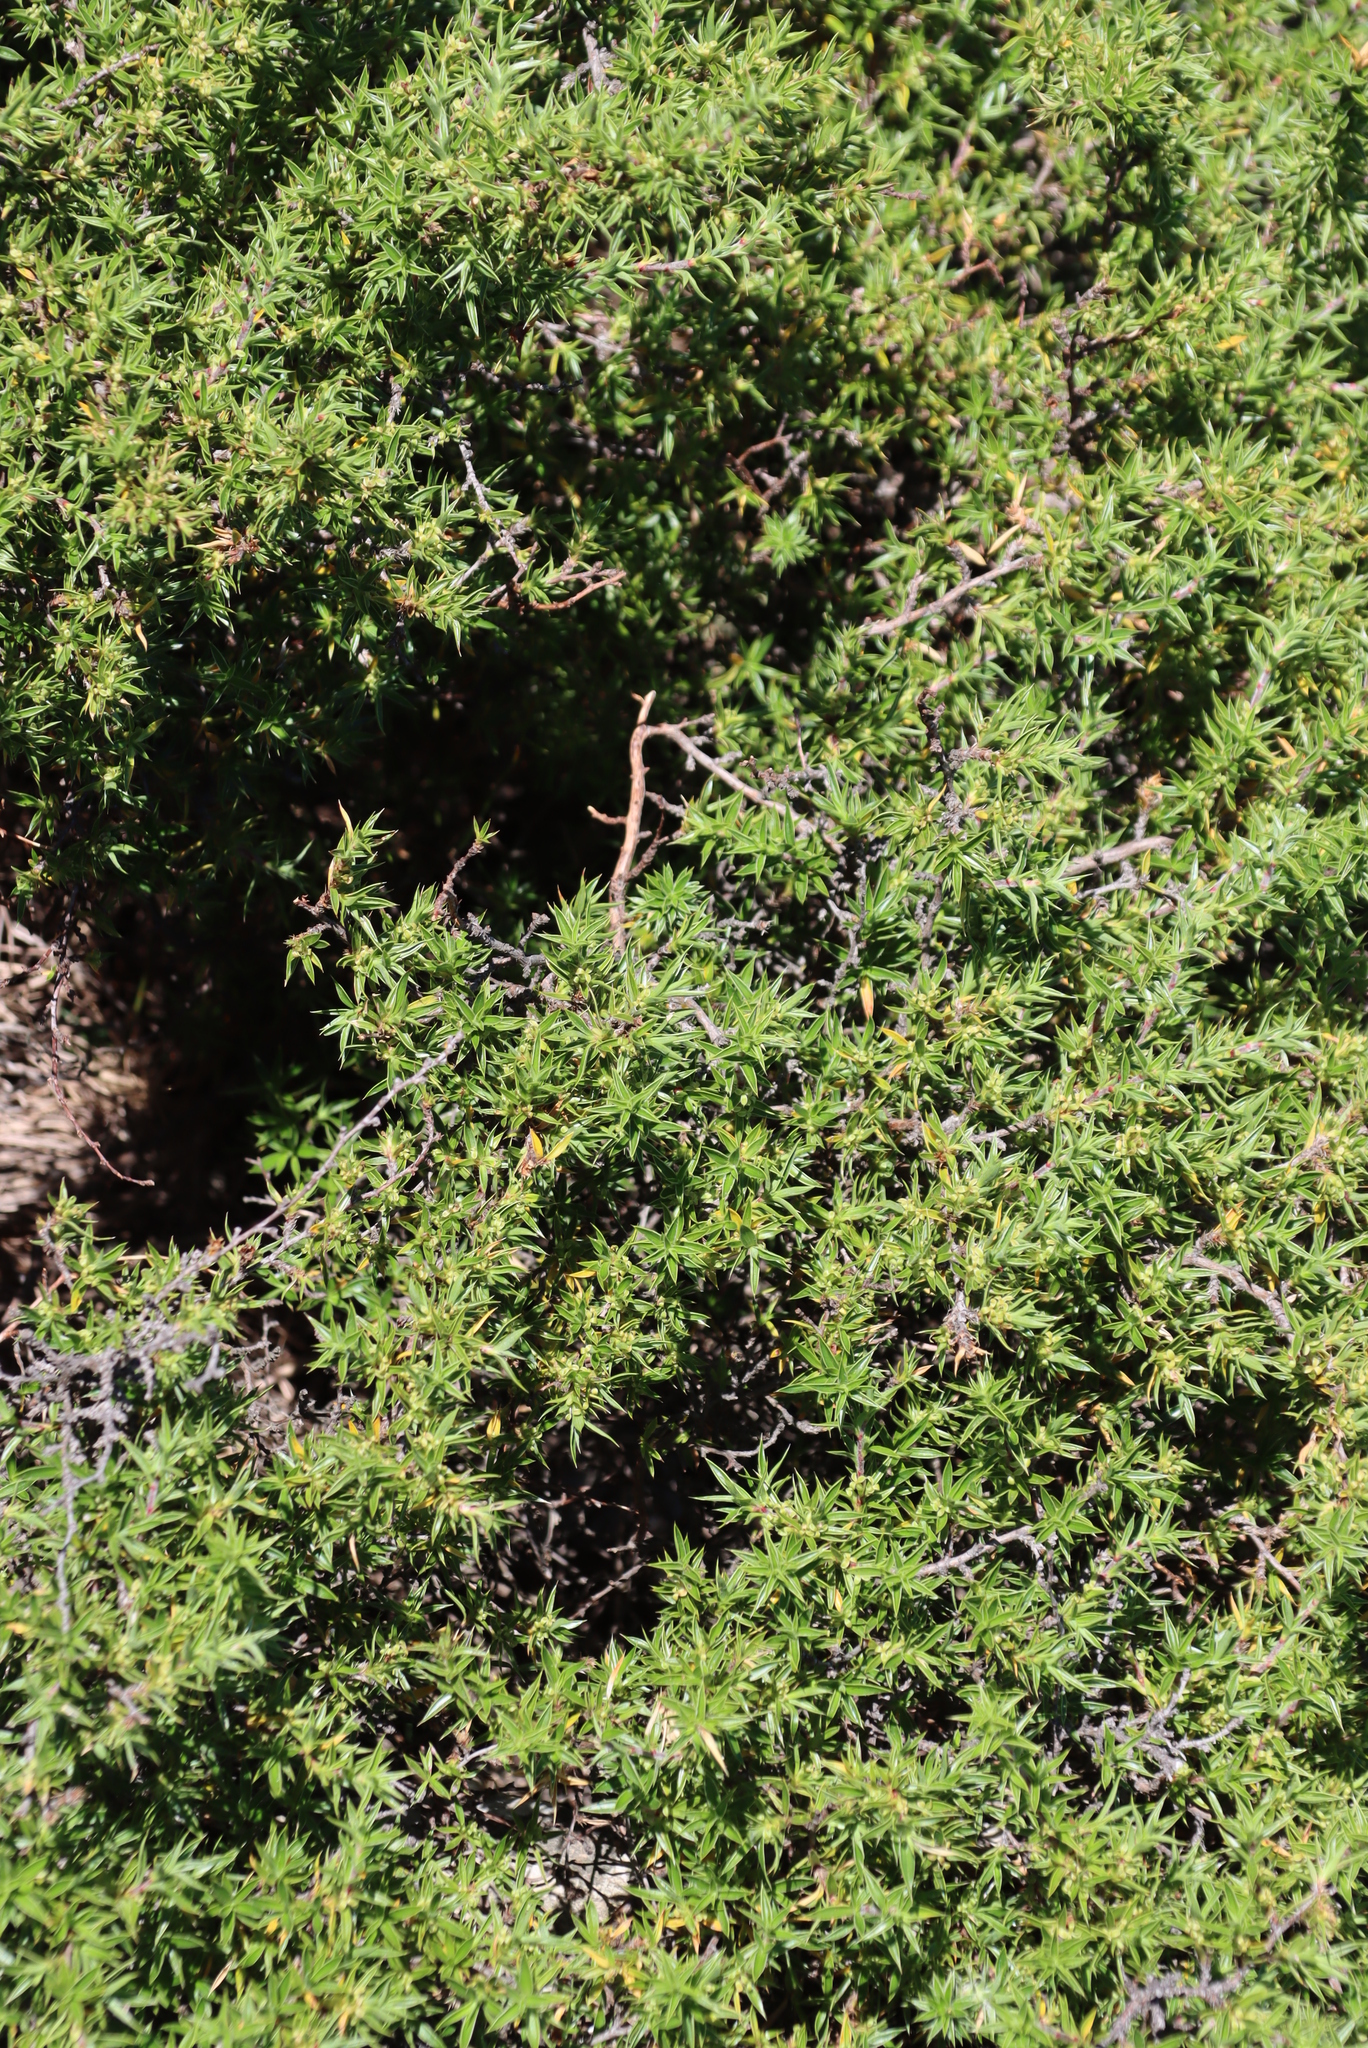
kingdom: Plantae
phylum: Tracheophyta
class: Magnoliopsida
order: Rosales
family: Rosaceae
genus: Cliffortia
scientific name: Cliffortia ruscifolia
